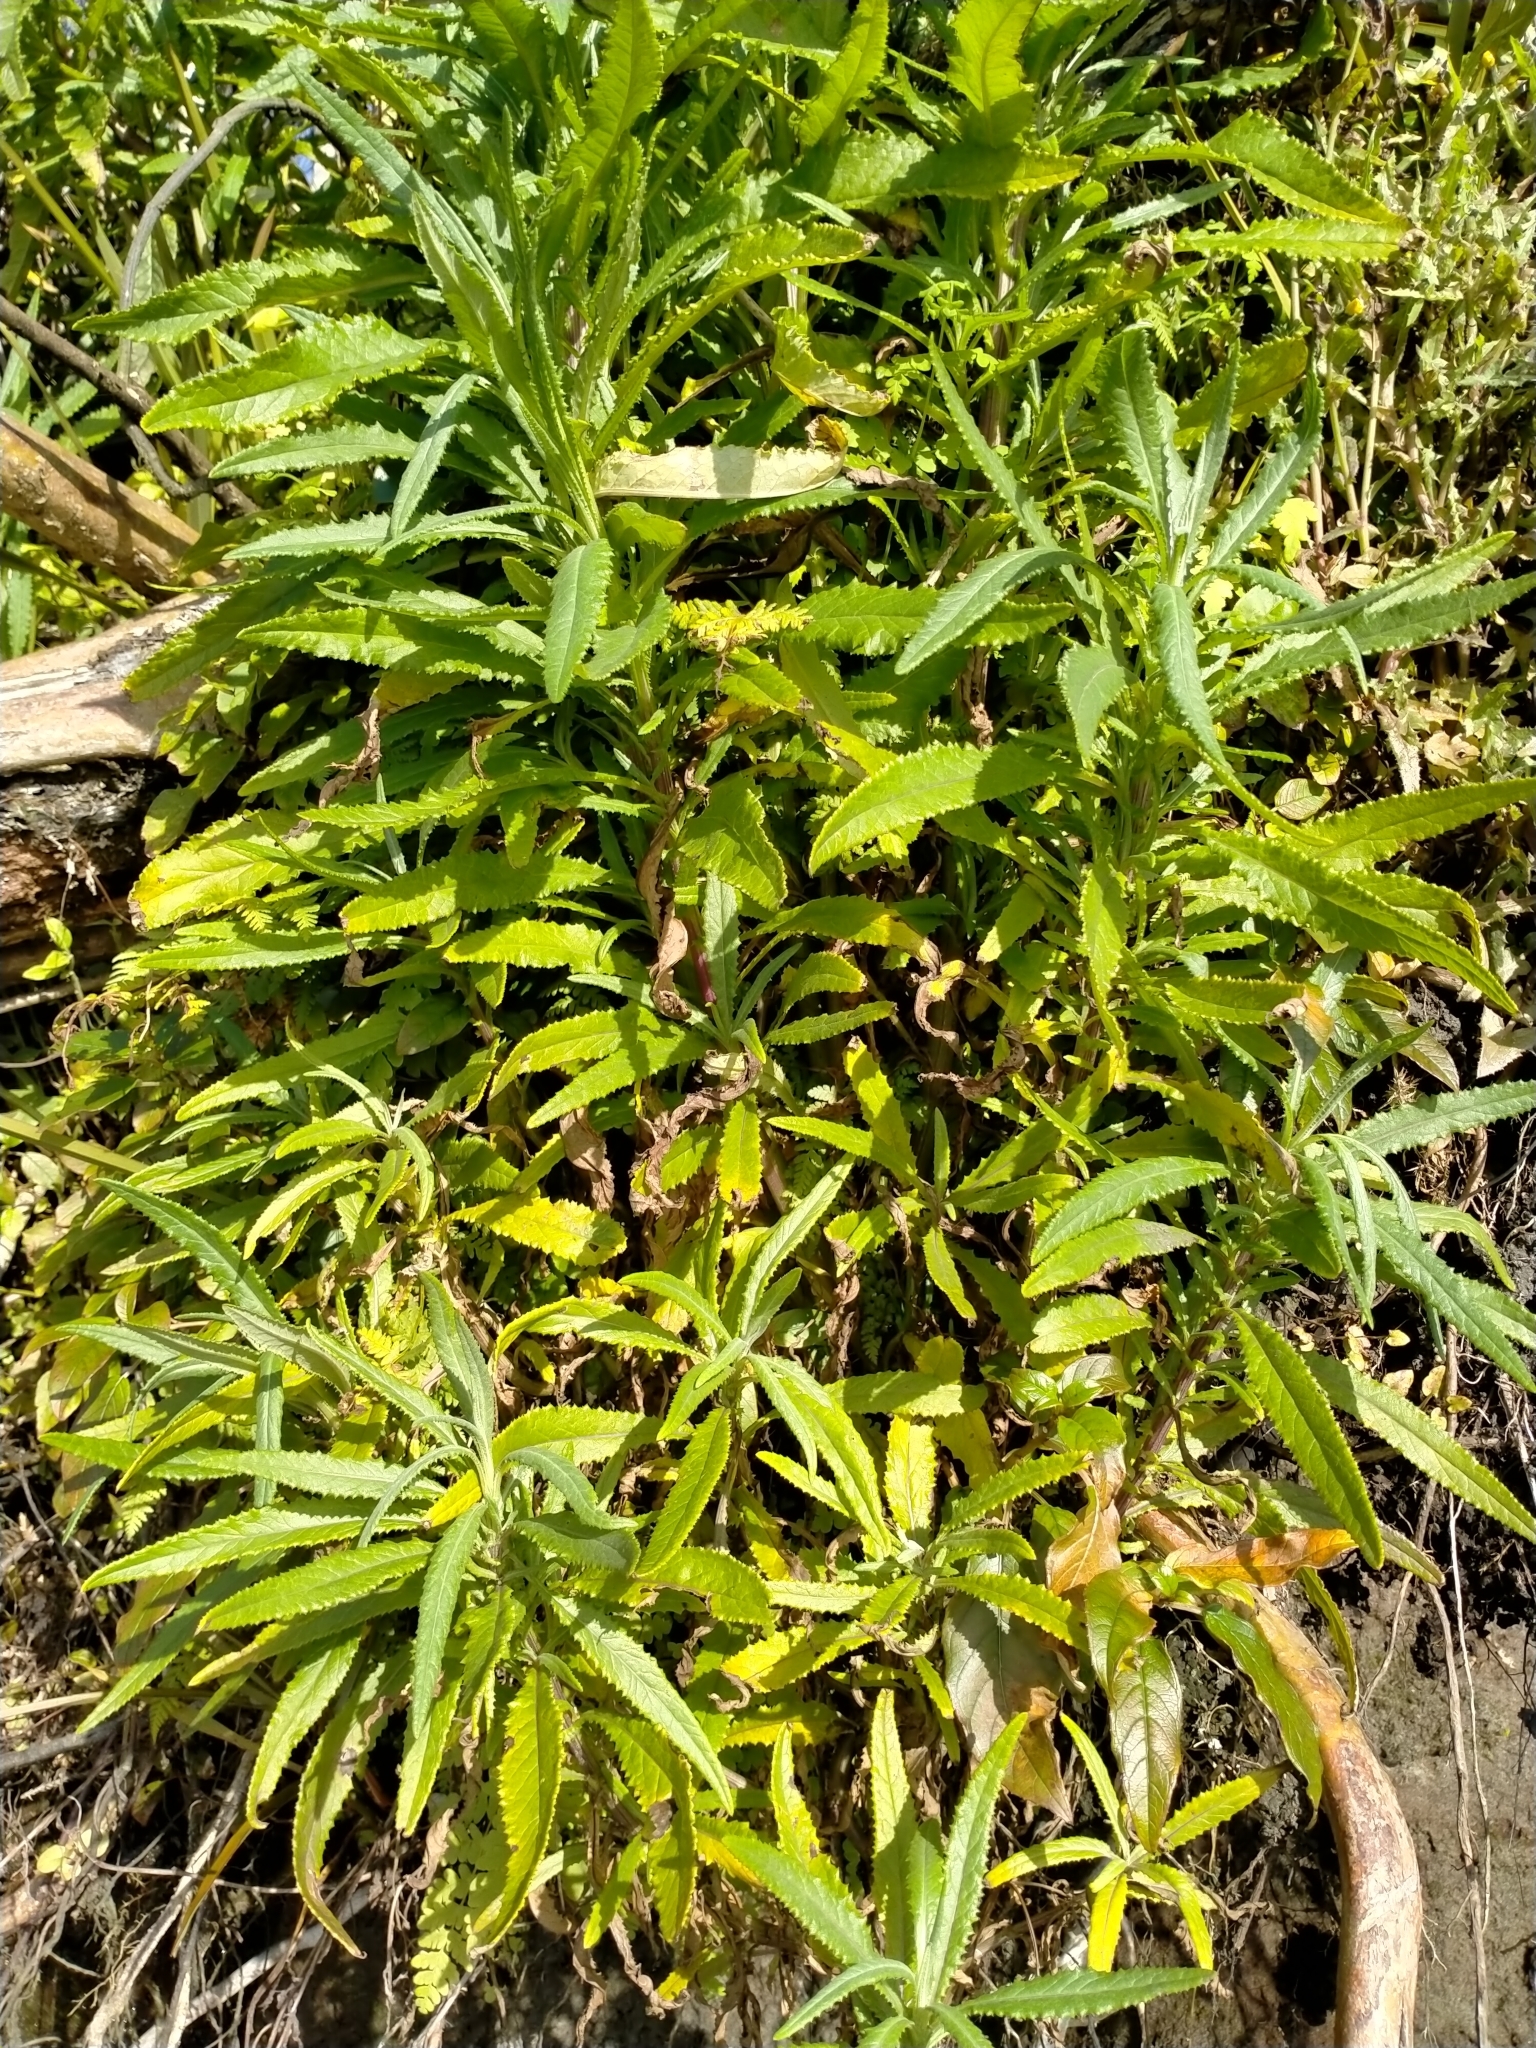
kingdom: Plantae
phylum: Tracheophyta
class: Magnoliopsida
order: Asterales
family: Asteraceae
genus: Senecio
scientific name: Senecio minimus
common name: Toothed fireweed
